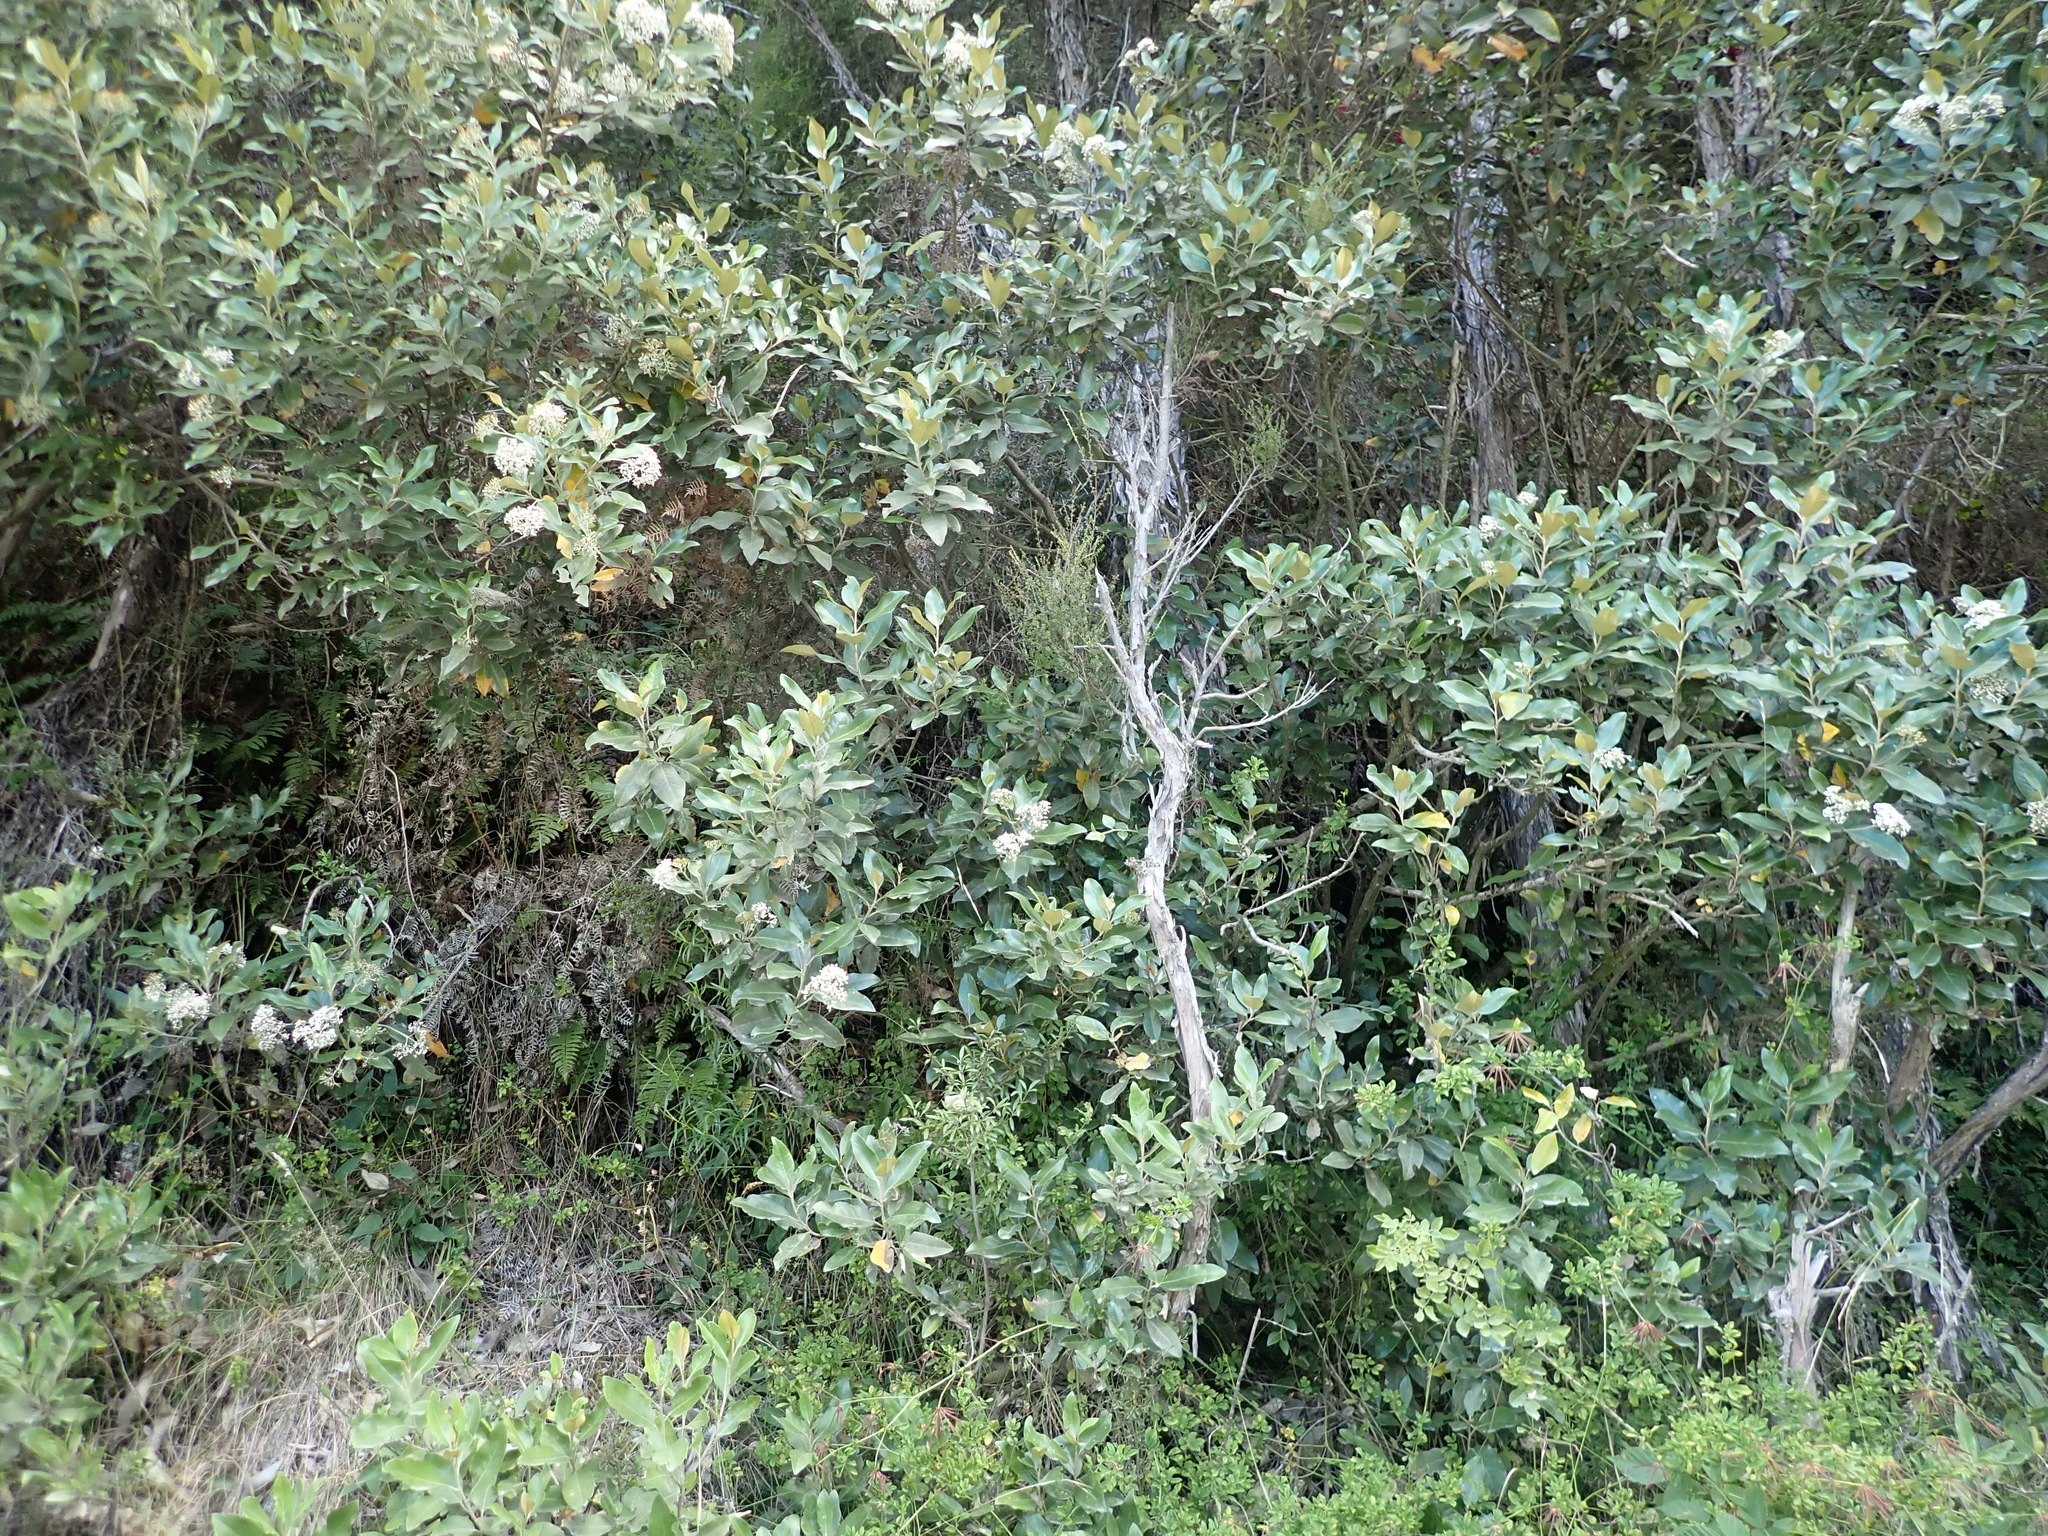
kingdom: Plantae
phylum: Tracheophyta
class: Magnoliopsida
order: Asterales
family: Asteraceae
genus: Olearia
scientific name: Olearia avicenniifolia
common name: Mangrove-leaf daisybush
